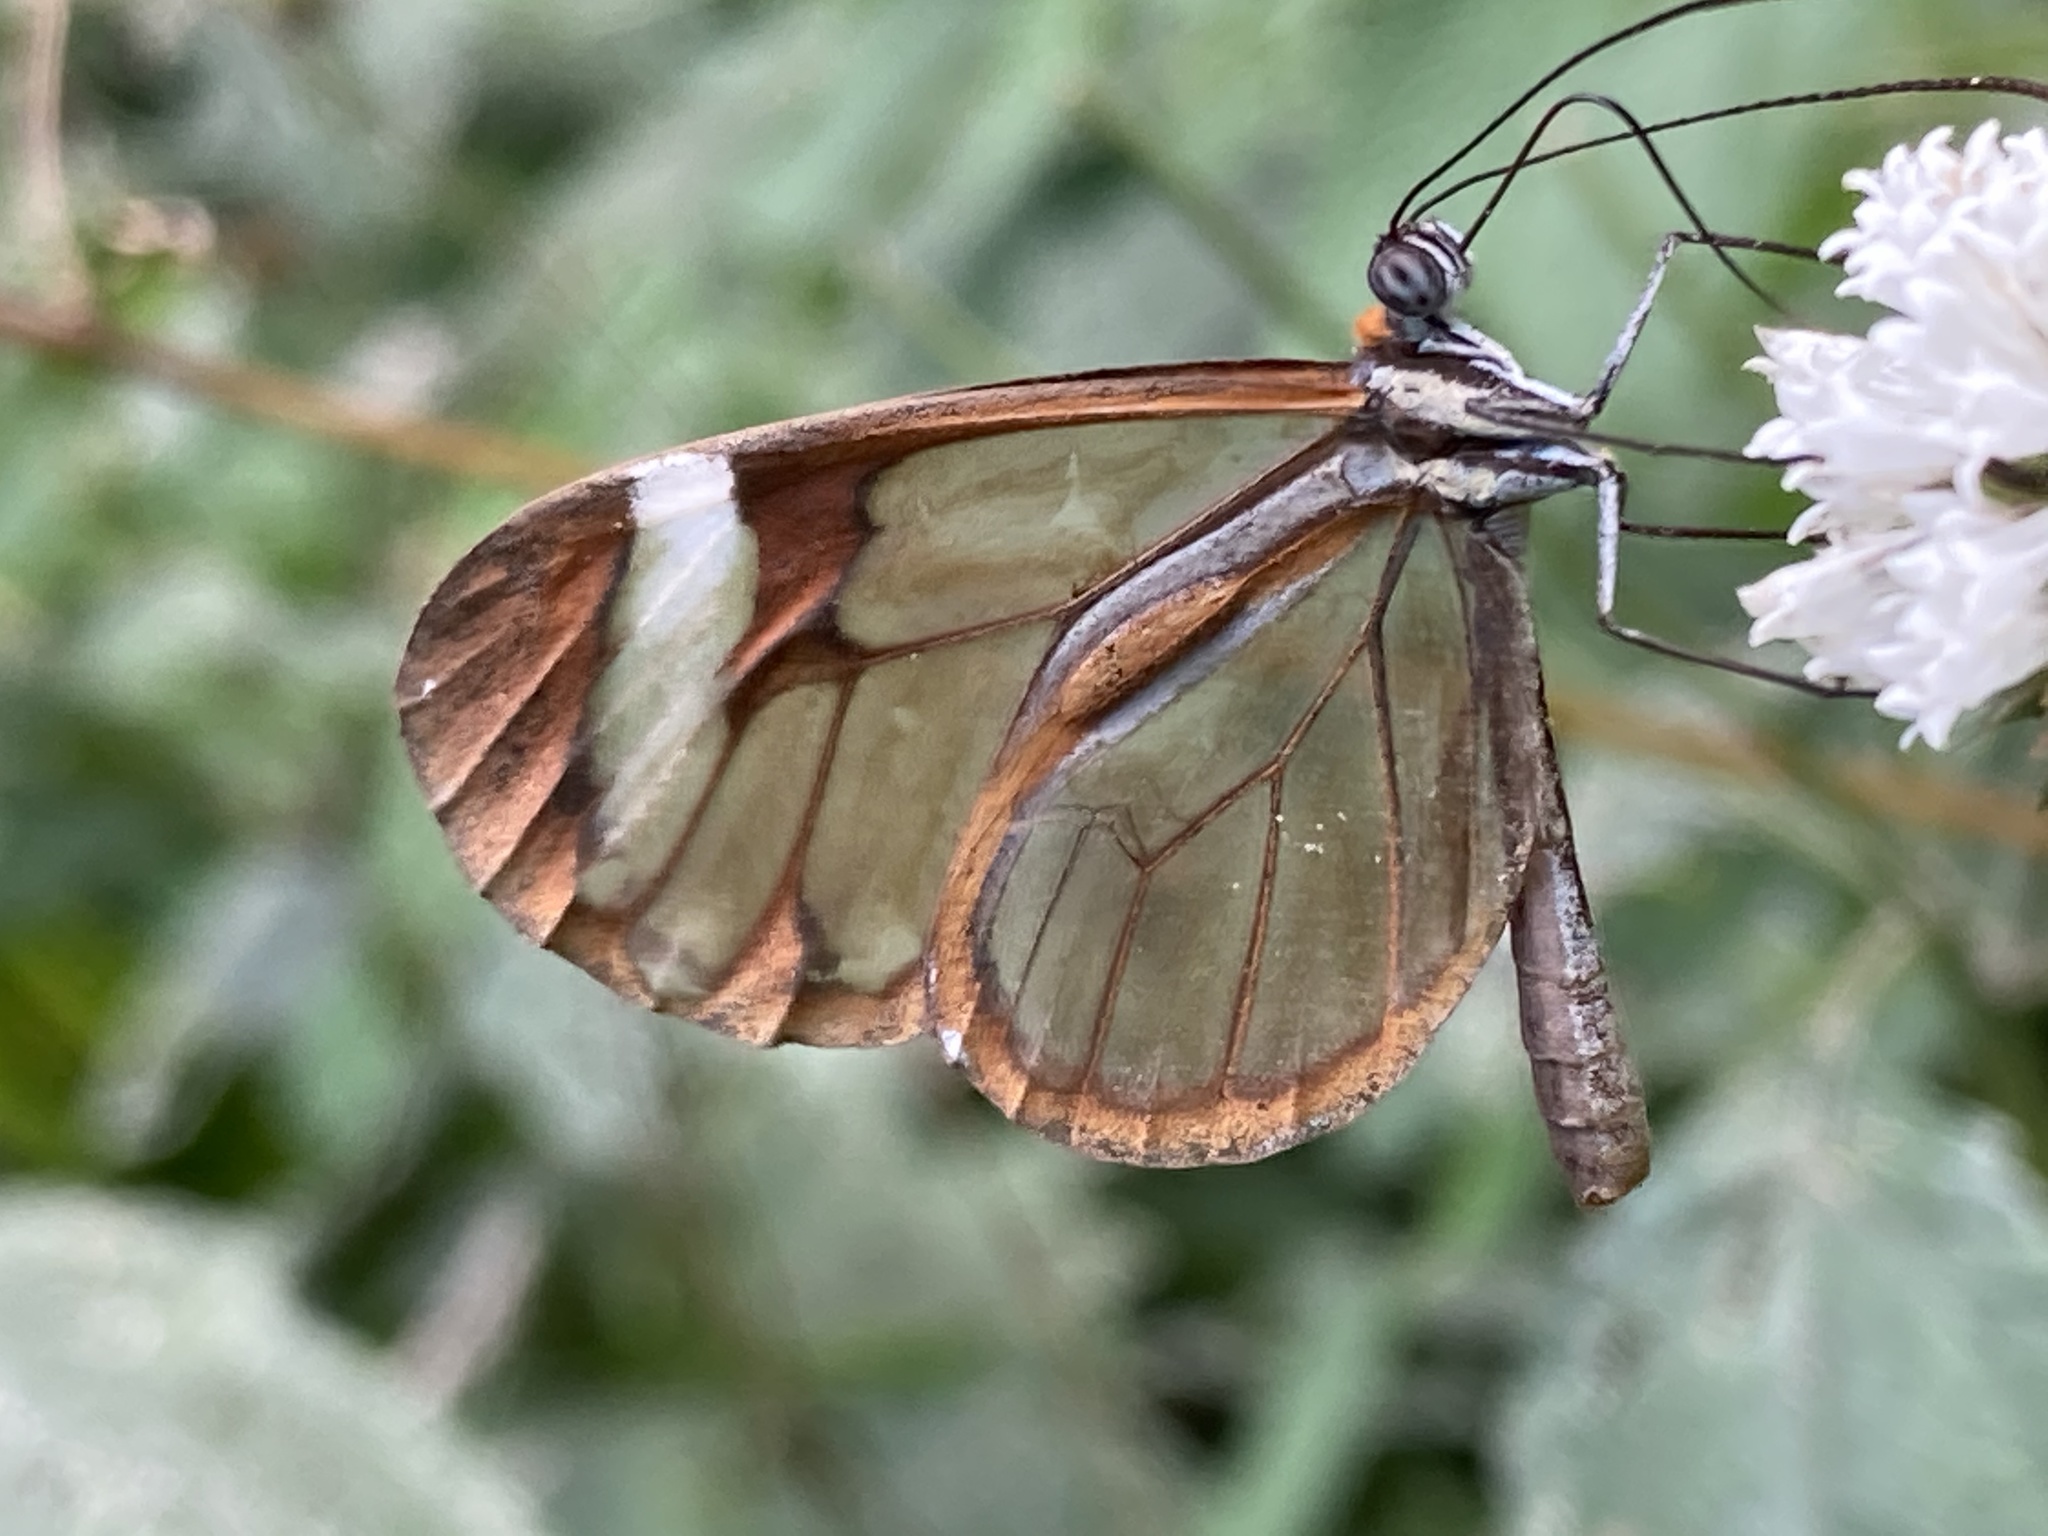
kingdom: Animalia
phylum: Arthropoda
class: Insecta
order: Lepidoptera
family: Nymphalidae
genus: Pteronymia
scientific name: Pteronymia cotytto
